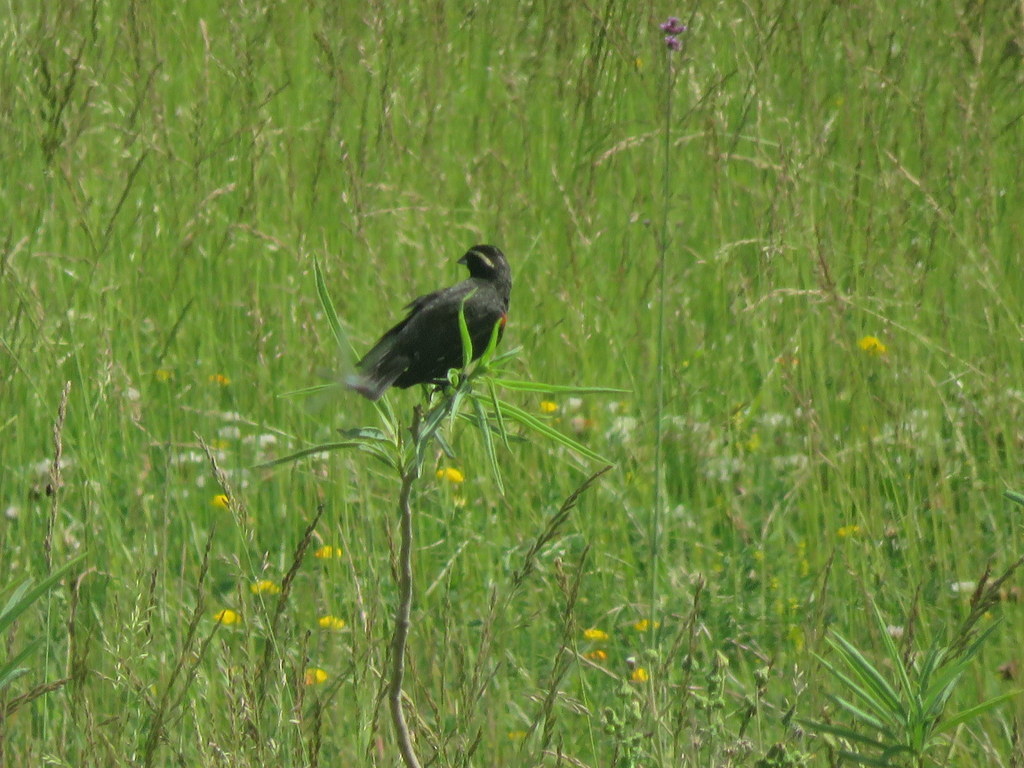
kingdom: Animalia
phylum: Chordata
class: Aves
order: Passeriformes
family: Icteridae
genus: Sturnella
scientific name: Sturnella superciliaris
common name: White-browed blackbird
